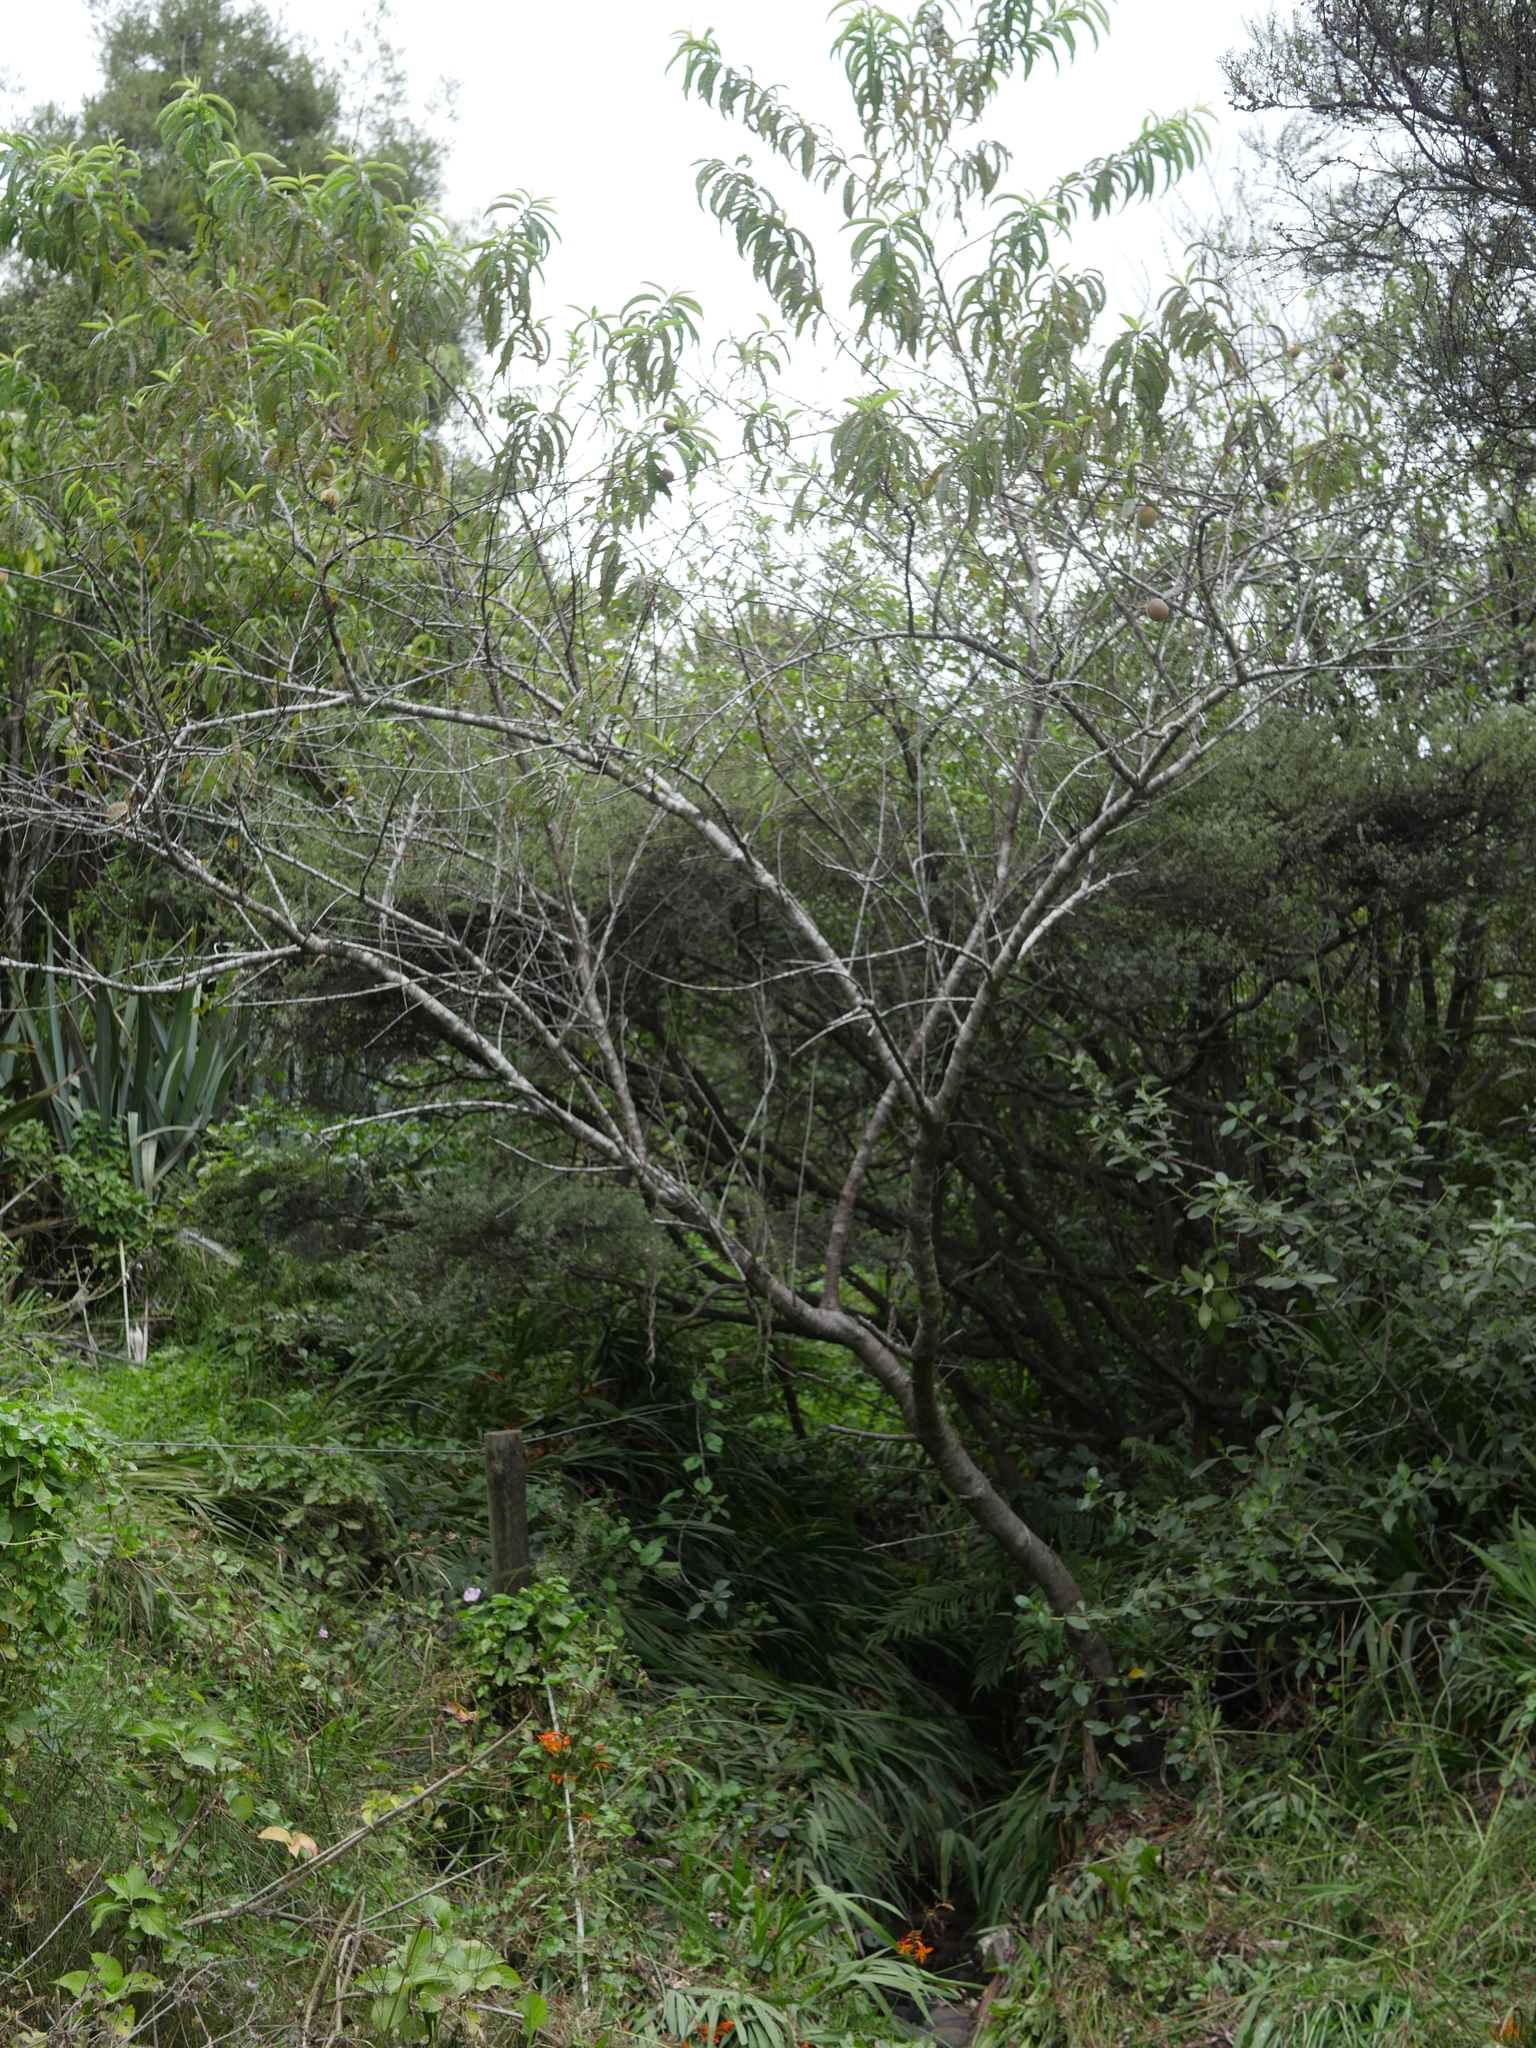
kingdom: Plantae
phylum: Tracheophyta
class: Magnoliopsida
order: Rosales
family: Rosaceae
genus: Prunus
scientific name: Prunus persica
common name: Peach
